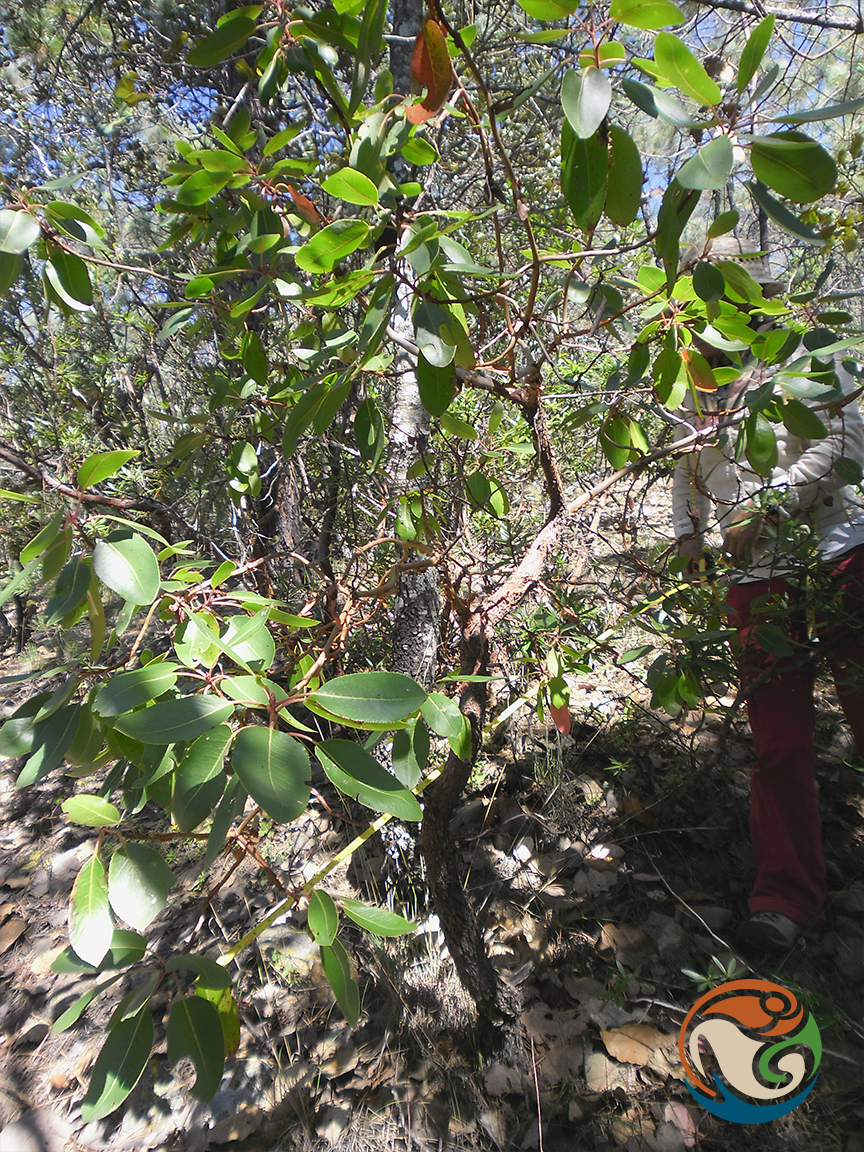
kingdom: Plantae
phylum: Tracheophyta
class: Magnoliopsida
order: Ericales
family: Ericaceae
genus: Arbutus
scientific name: Arbutus xalapensis
